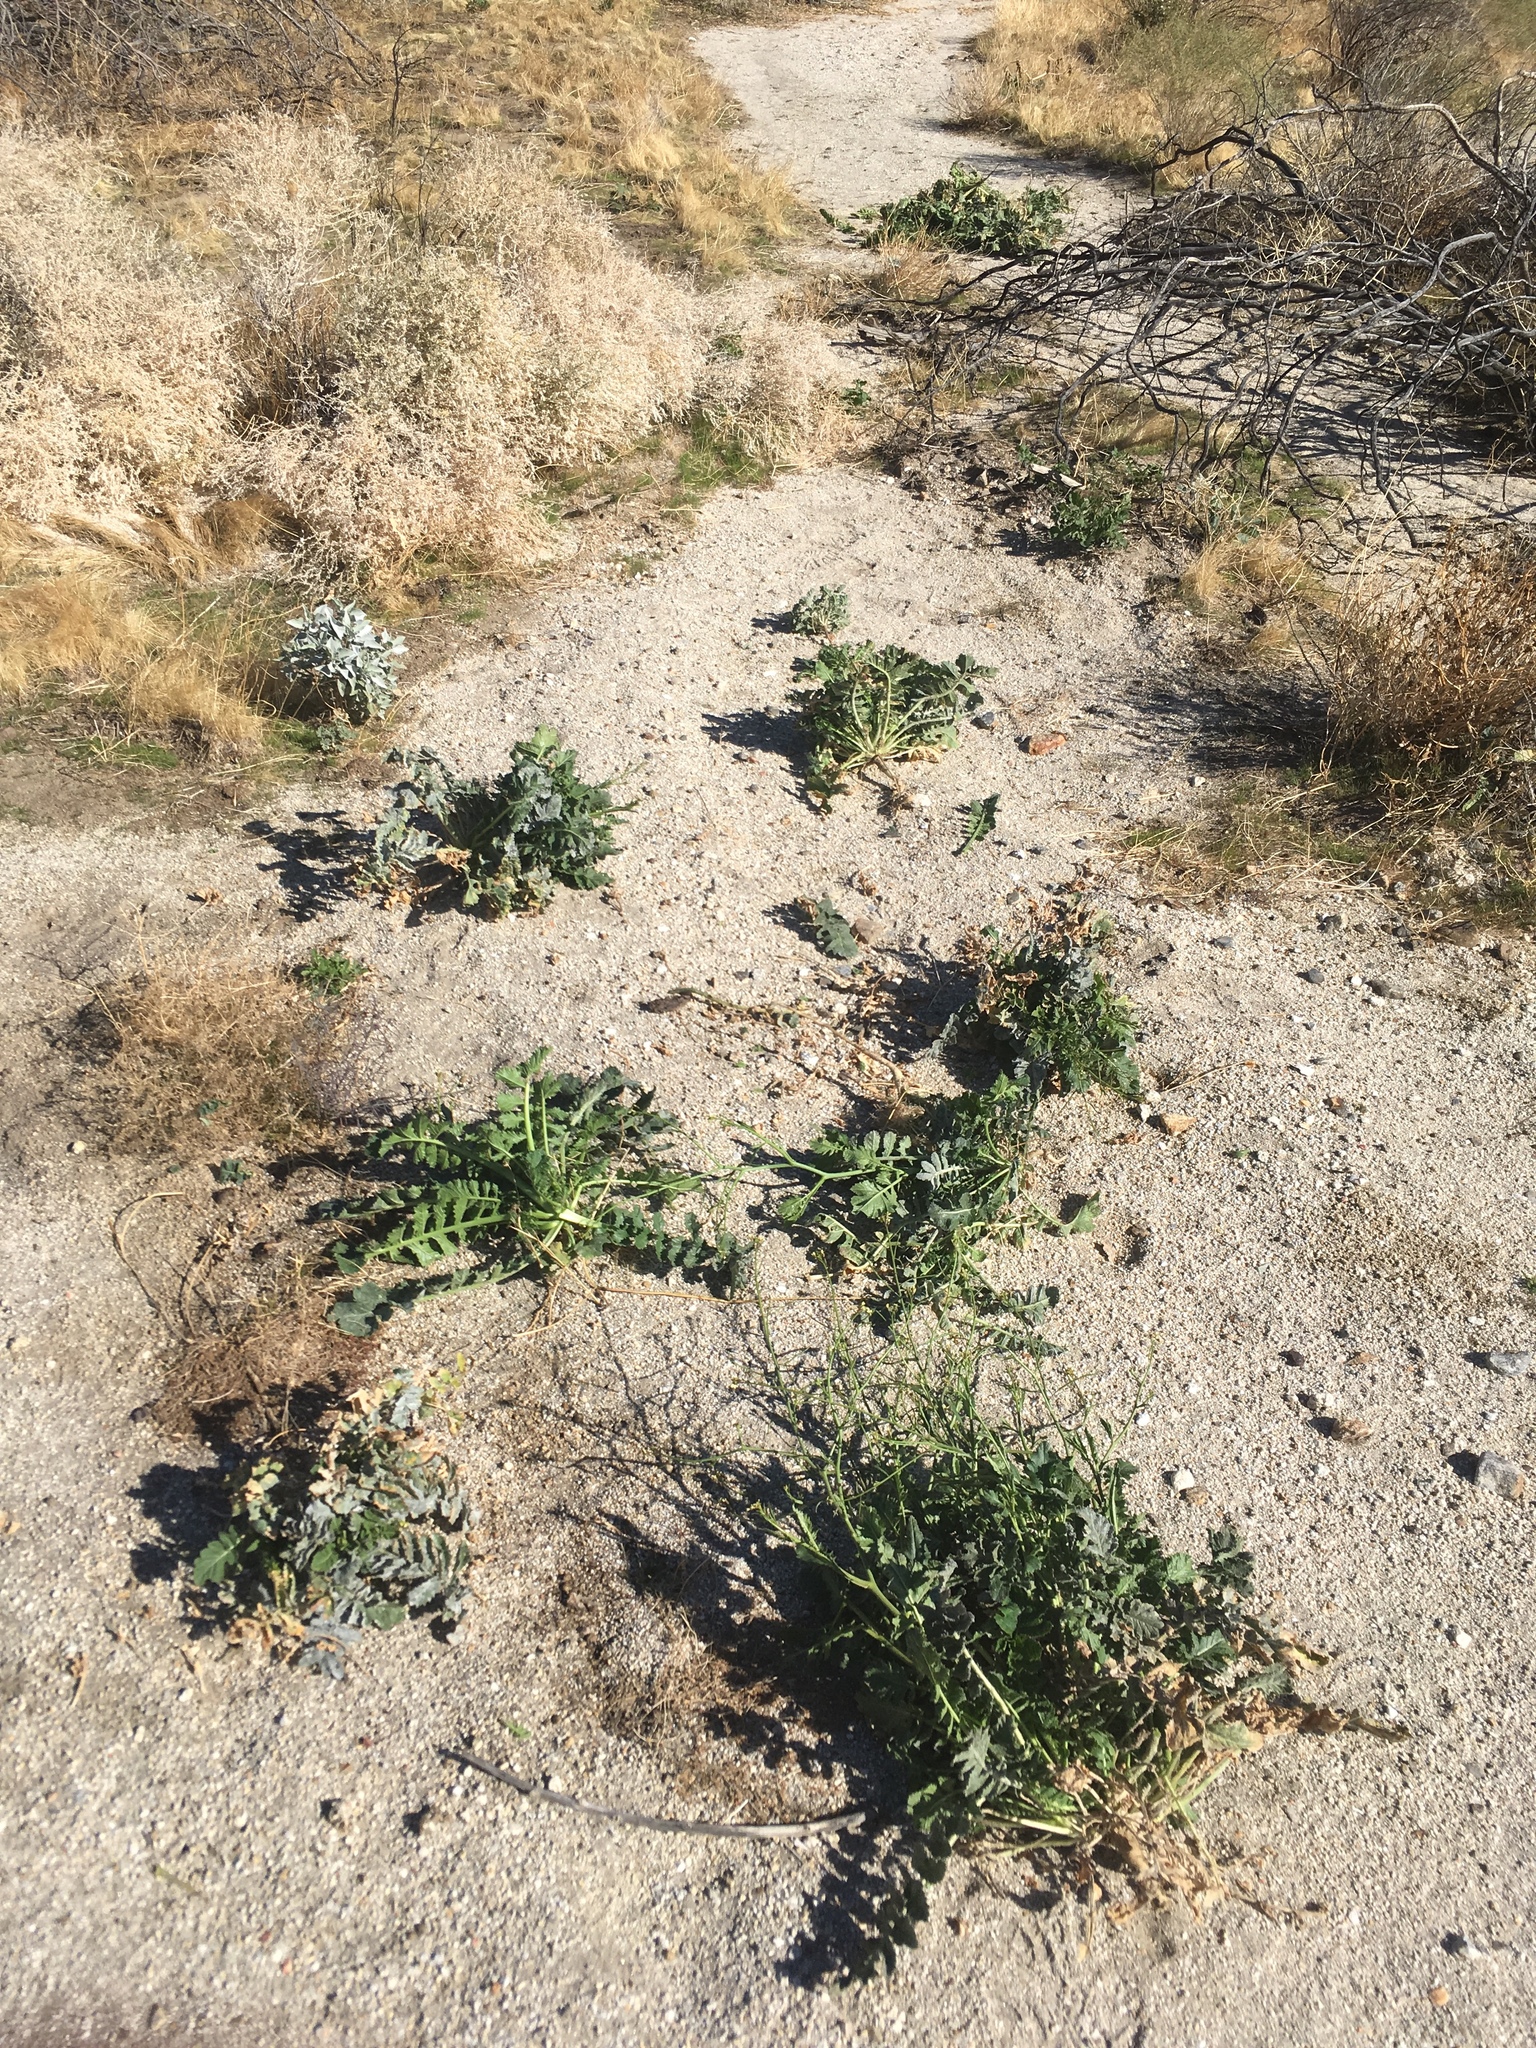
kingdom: Plantae
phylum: Tracheophyta
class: Magnoliopsida
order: Brassicales
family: Brassicaceae
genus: Brassica
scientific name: Brassica tournefortii
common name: Pale cabbage
